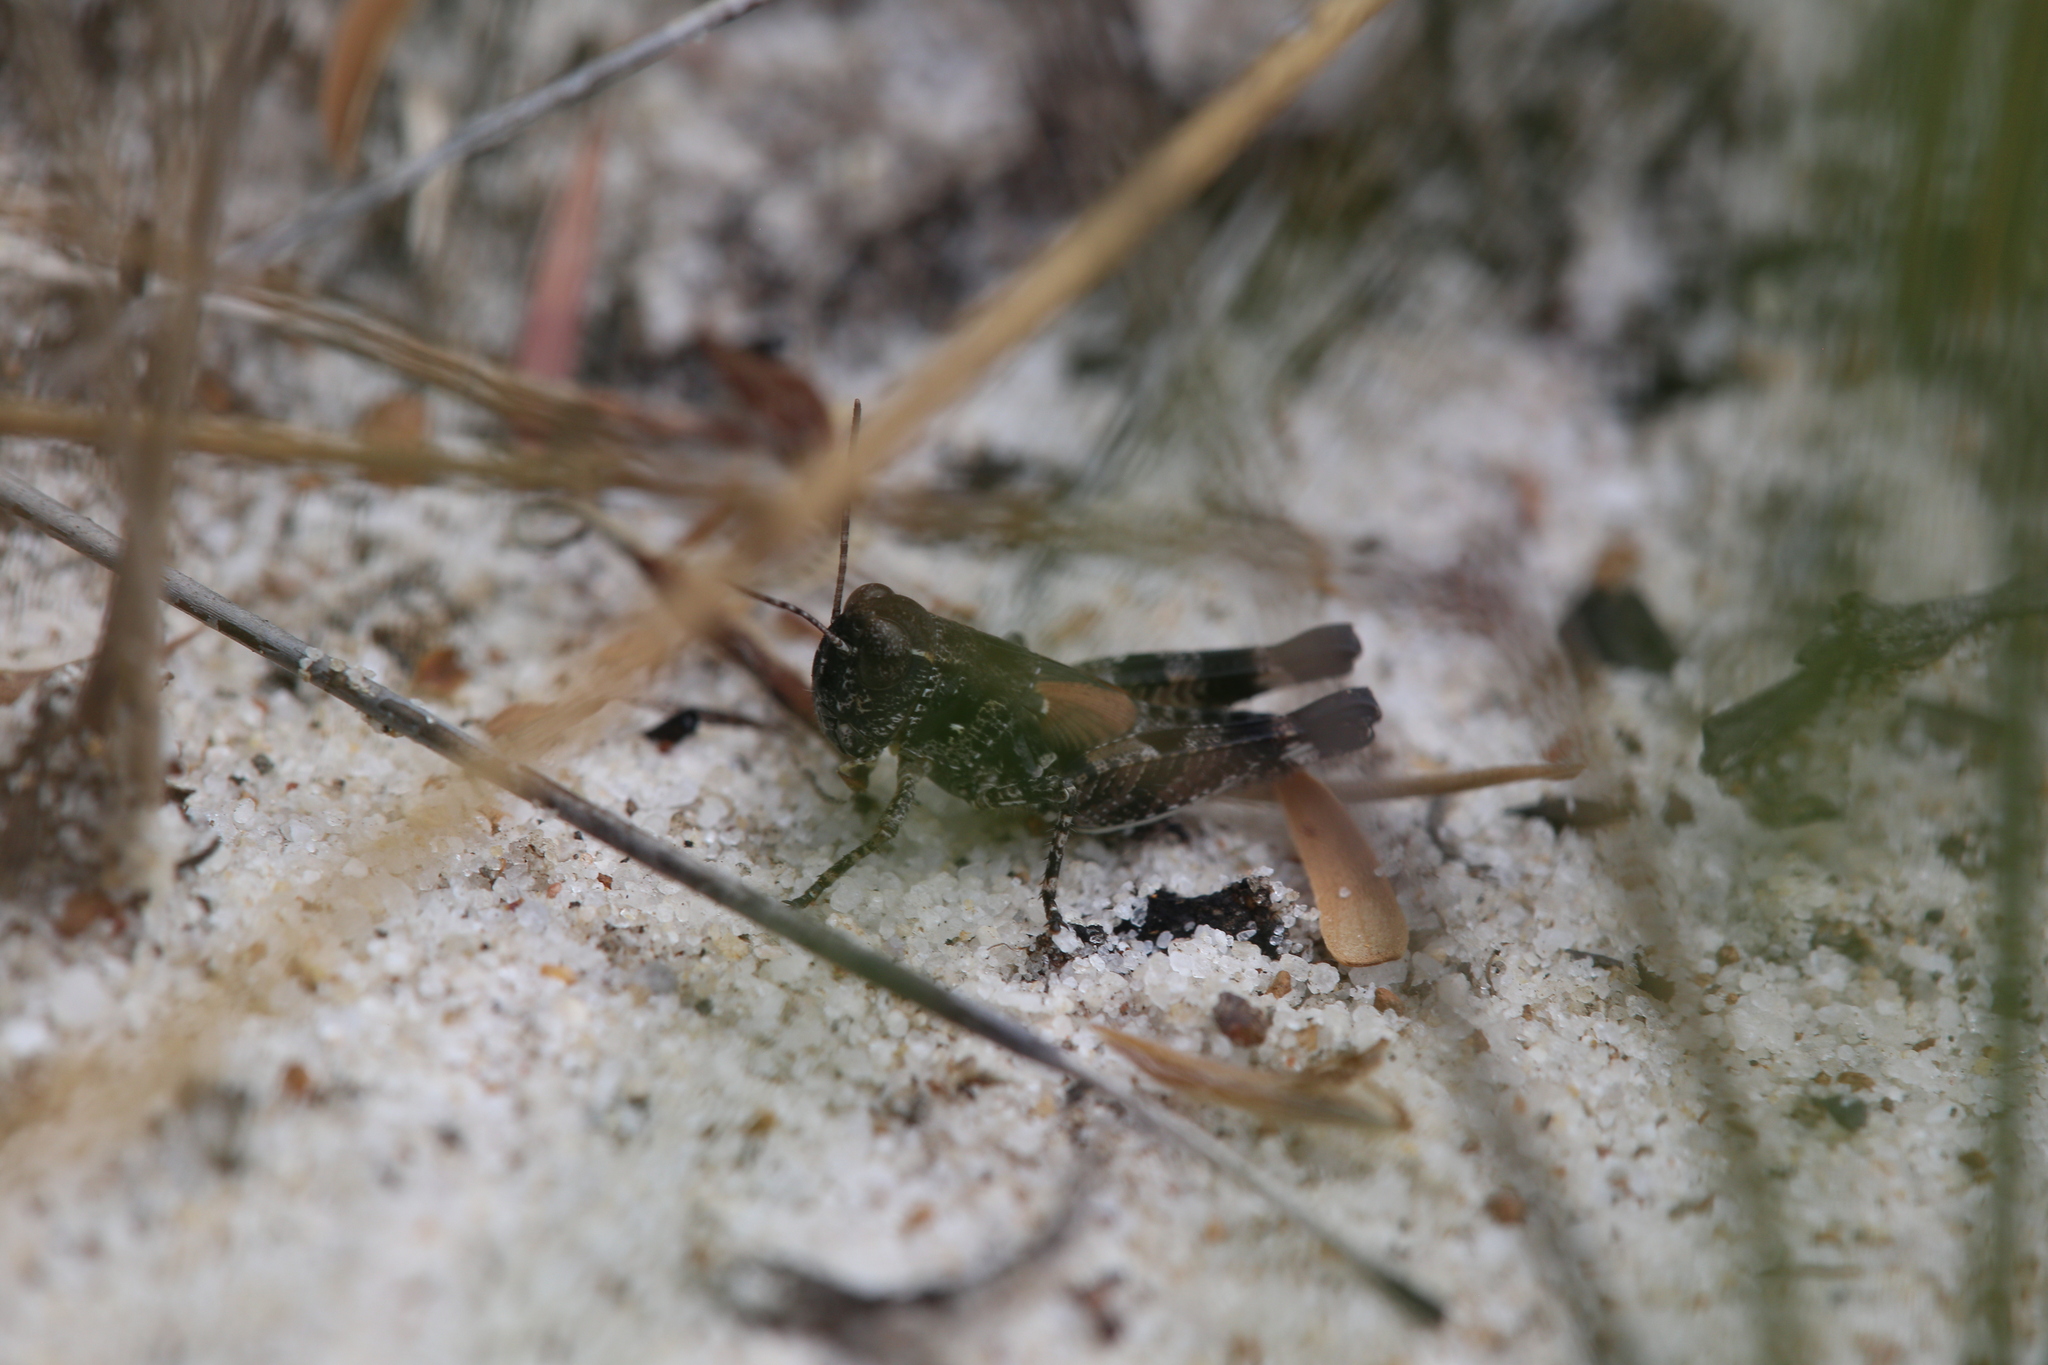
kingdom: Animalia
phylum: Arthropoda
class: Insecta
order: Orthoptera
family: Acrididae
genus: Urnisa
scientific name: Urnisa rugosa
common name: Red-legged urnisa
